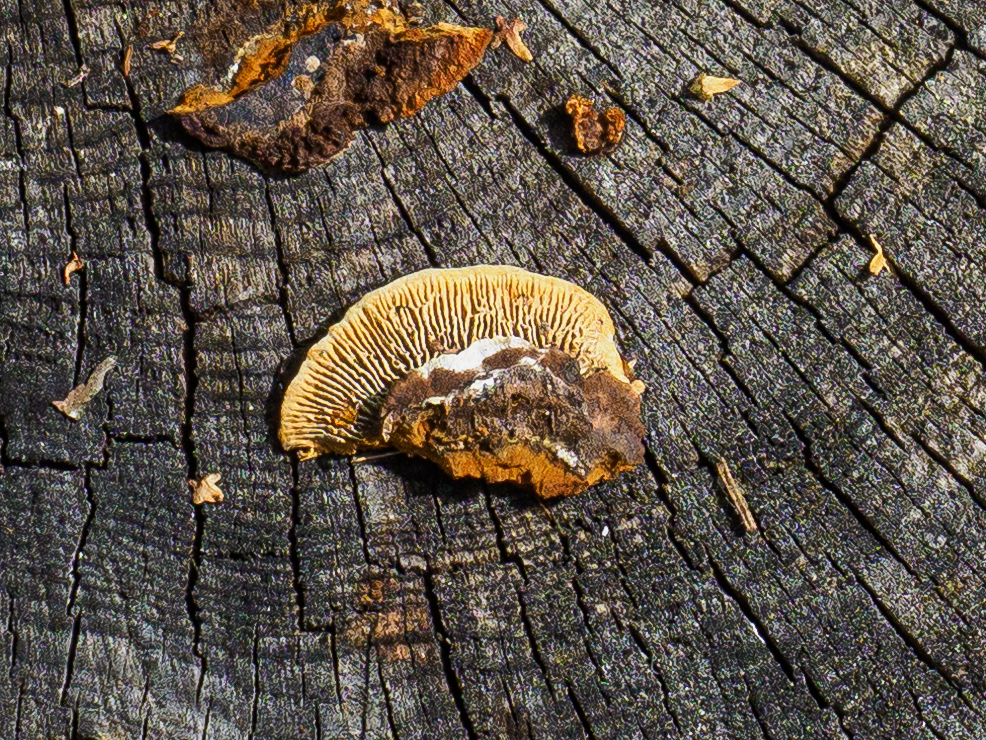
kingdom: Fungi
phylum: Basidiomycota
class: Agaricomycetes
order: Gloeophyllales
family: Gloeophyllaceae
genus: Gloeophyllum
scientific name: Gloeophyllum sepiarium
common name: Conifer mazegill
